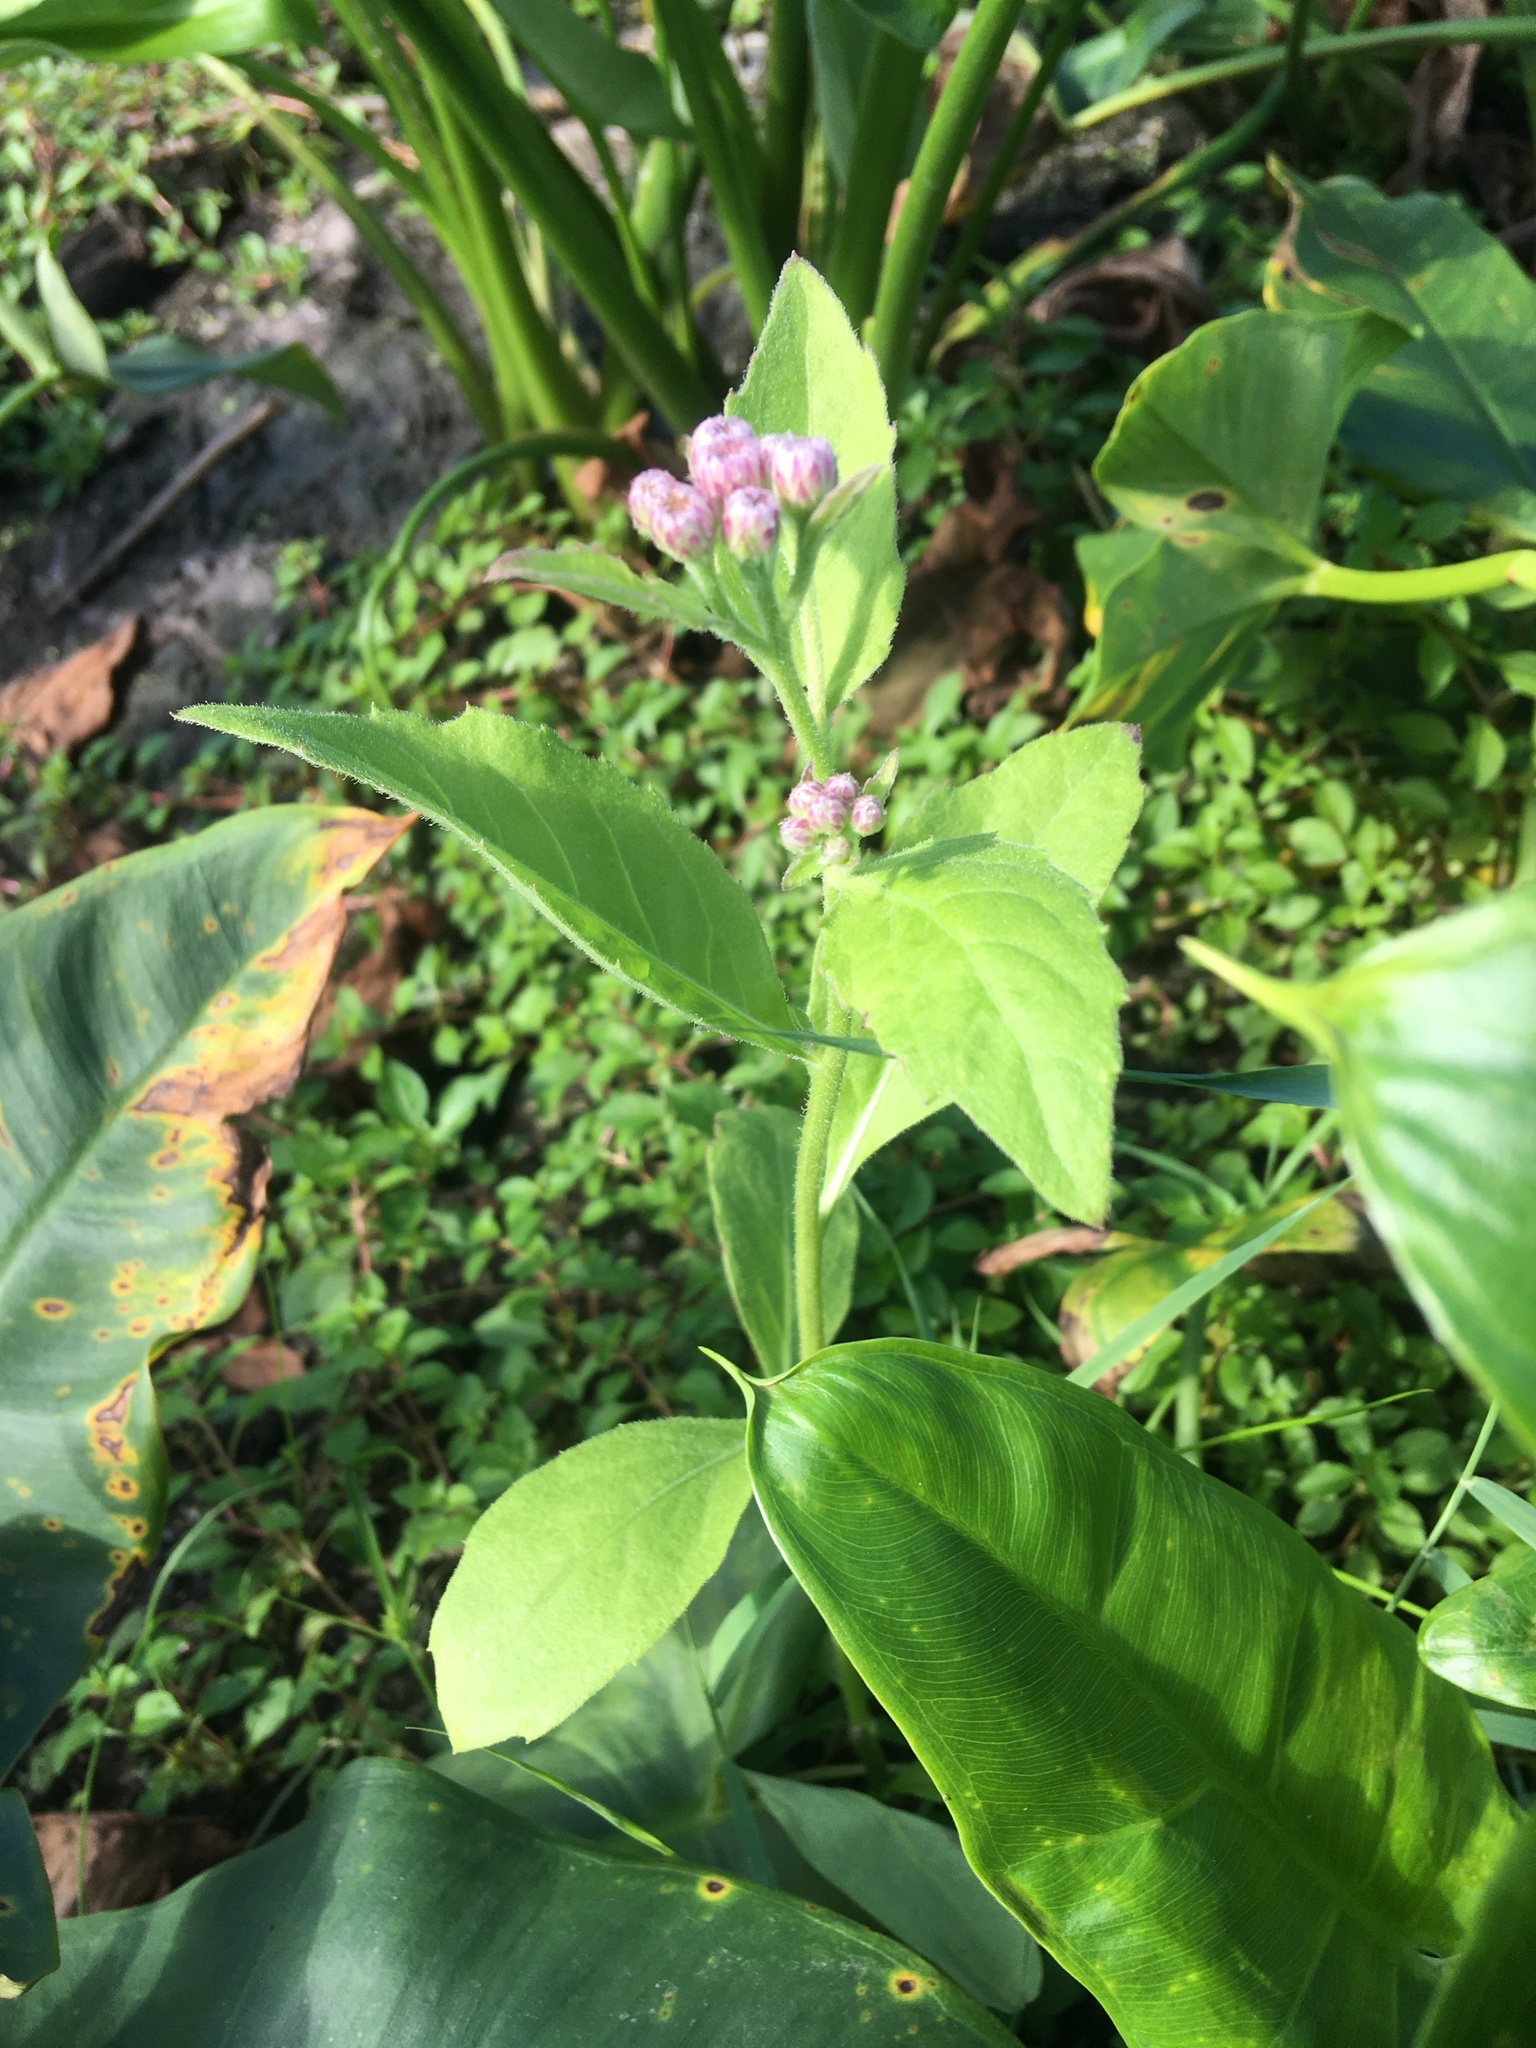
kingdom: Plantae
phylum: Tracheophyta
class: Magnoliopsida
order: Asterales
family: Asteraceae
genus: Pluchea
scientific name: Pluchea odorata
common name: Saltmarsh fleabane
